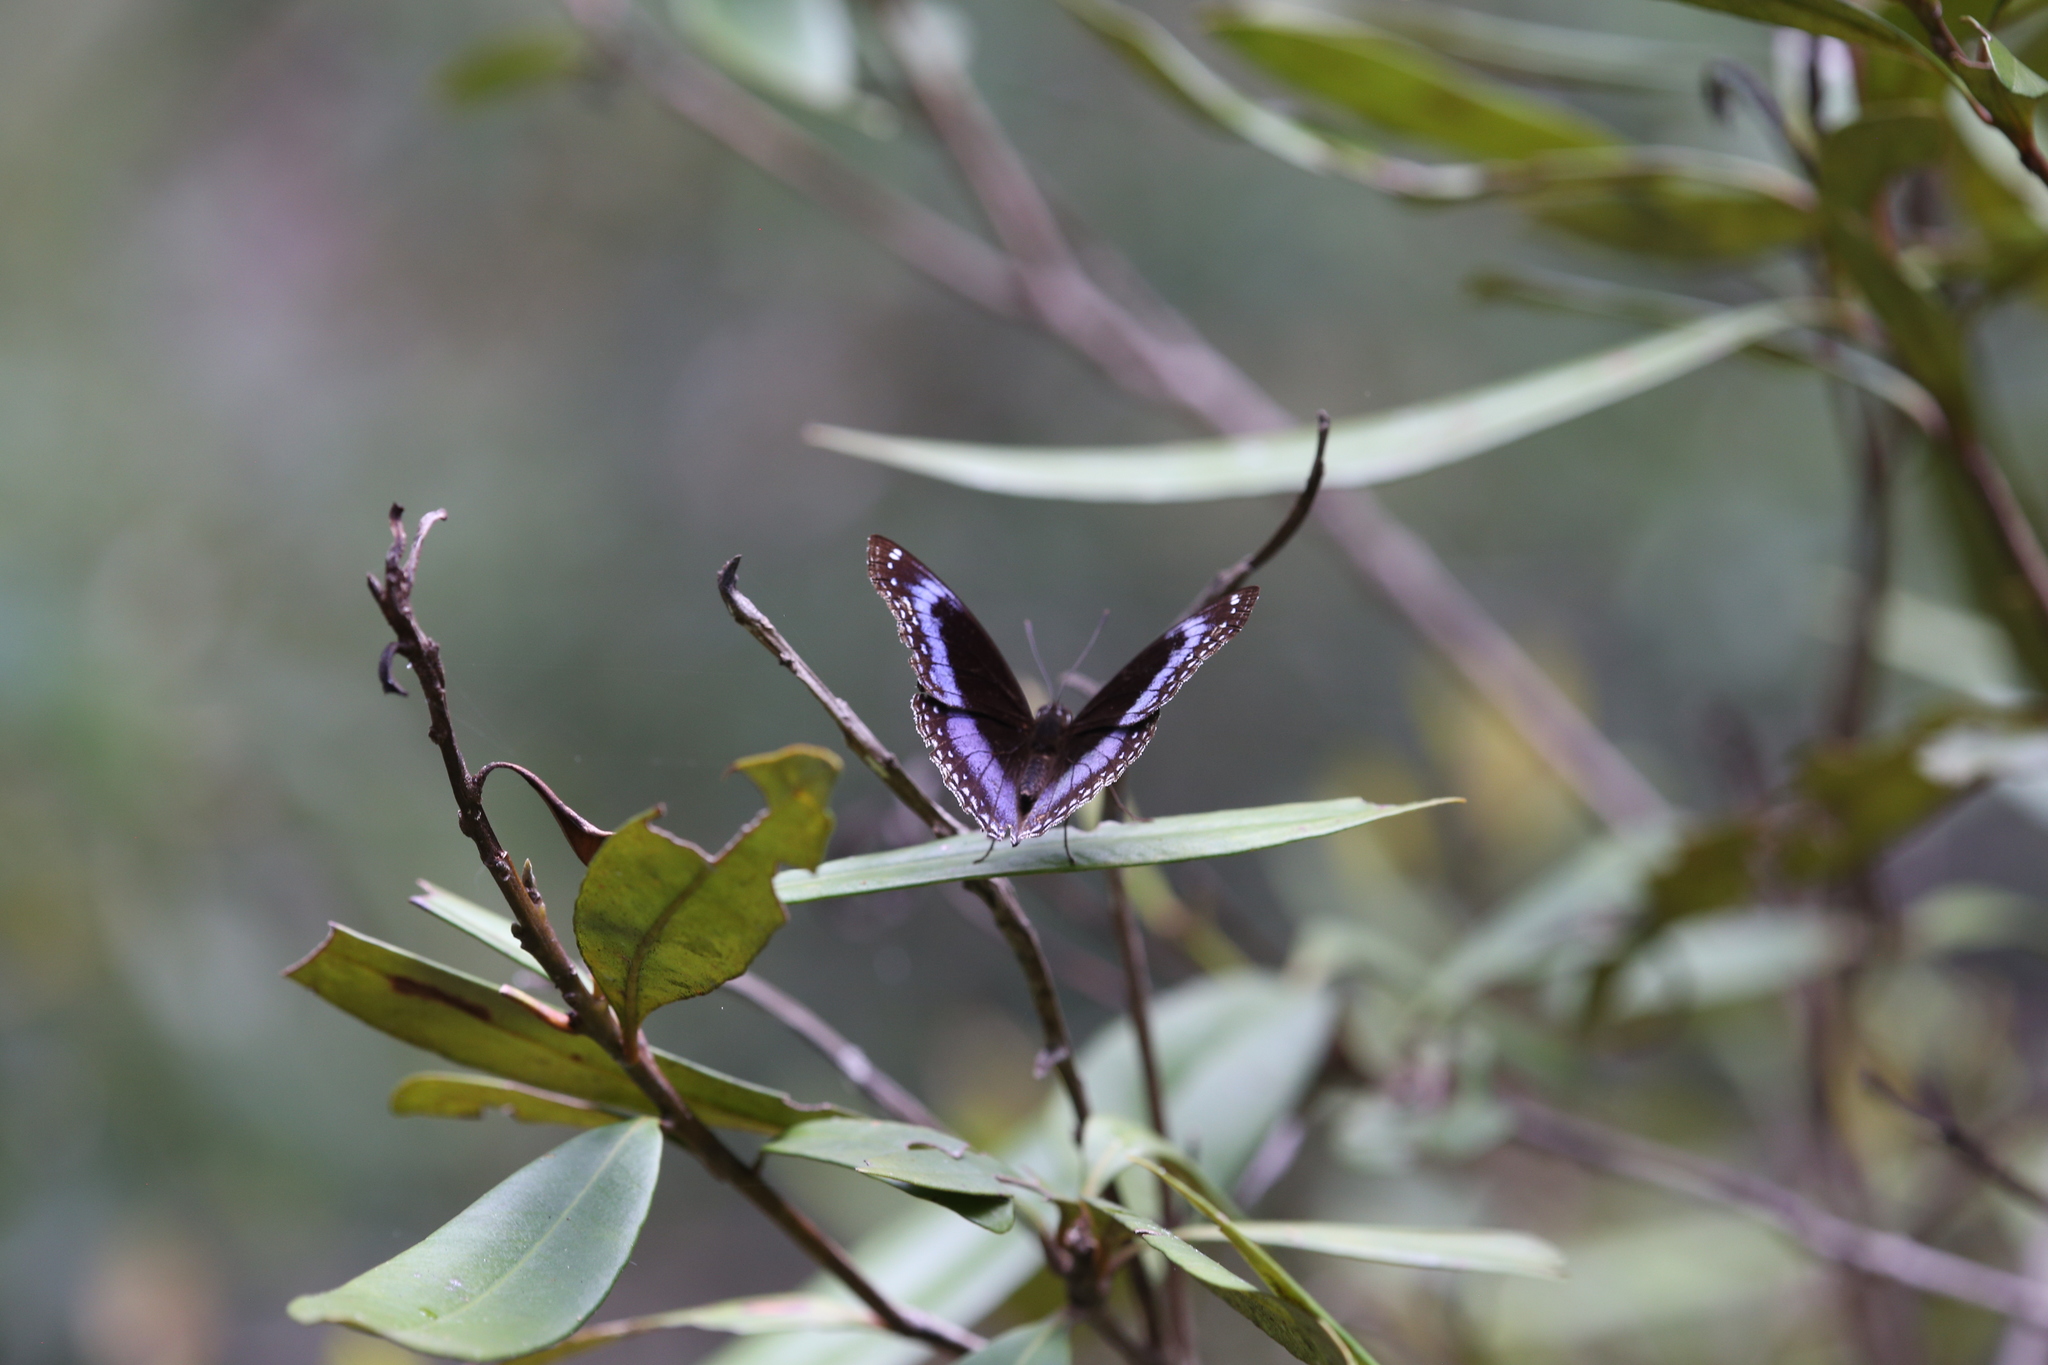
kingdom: Animalia
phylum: Arthropoda
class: Insecta
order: Lepidoptera
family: Nymphalidae
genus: Hypolimnas
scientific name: Hypolimnas alimena
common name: Blue-banded eggfly
